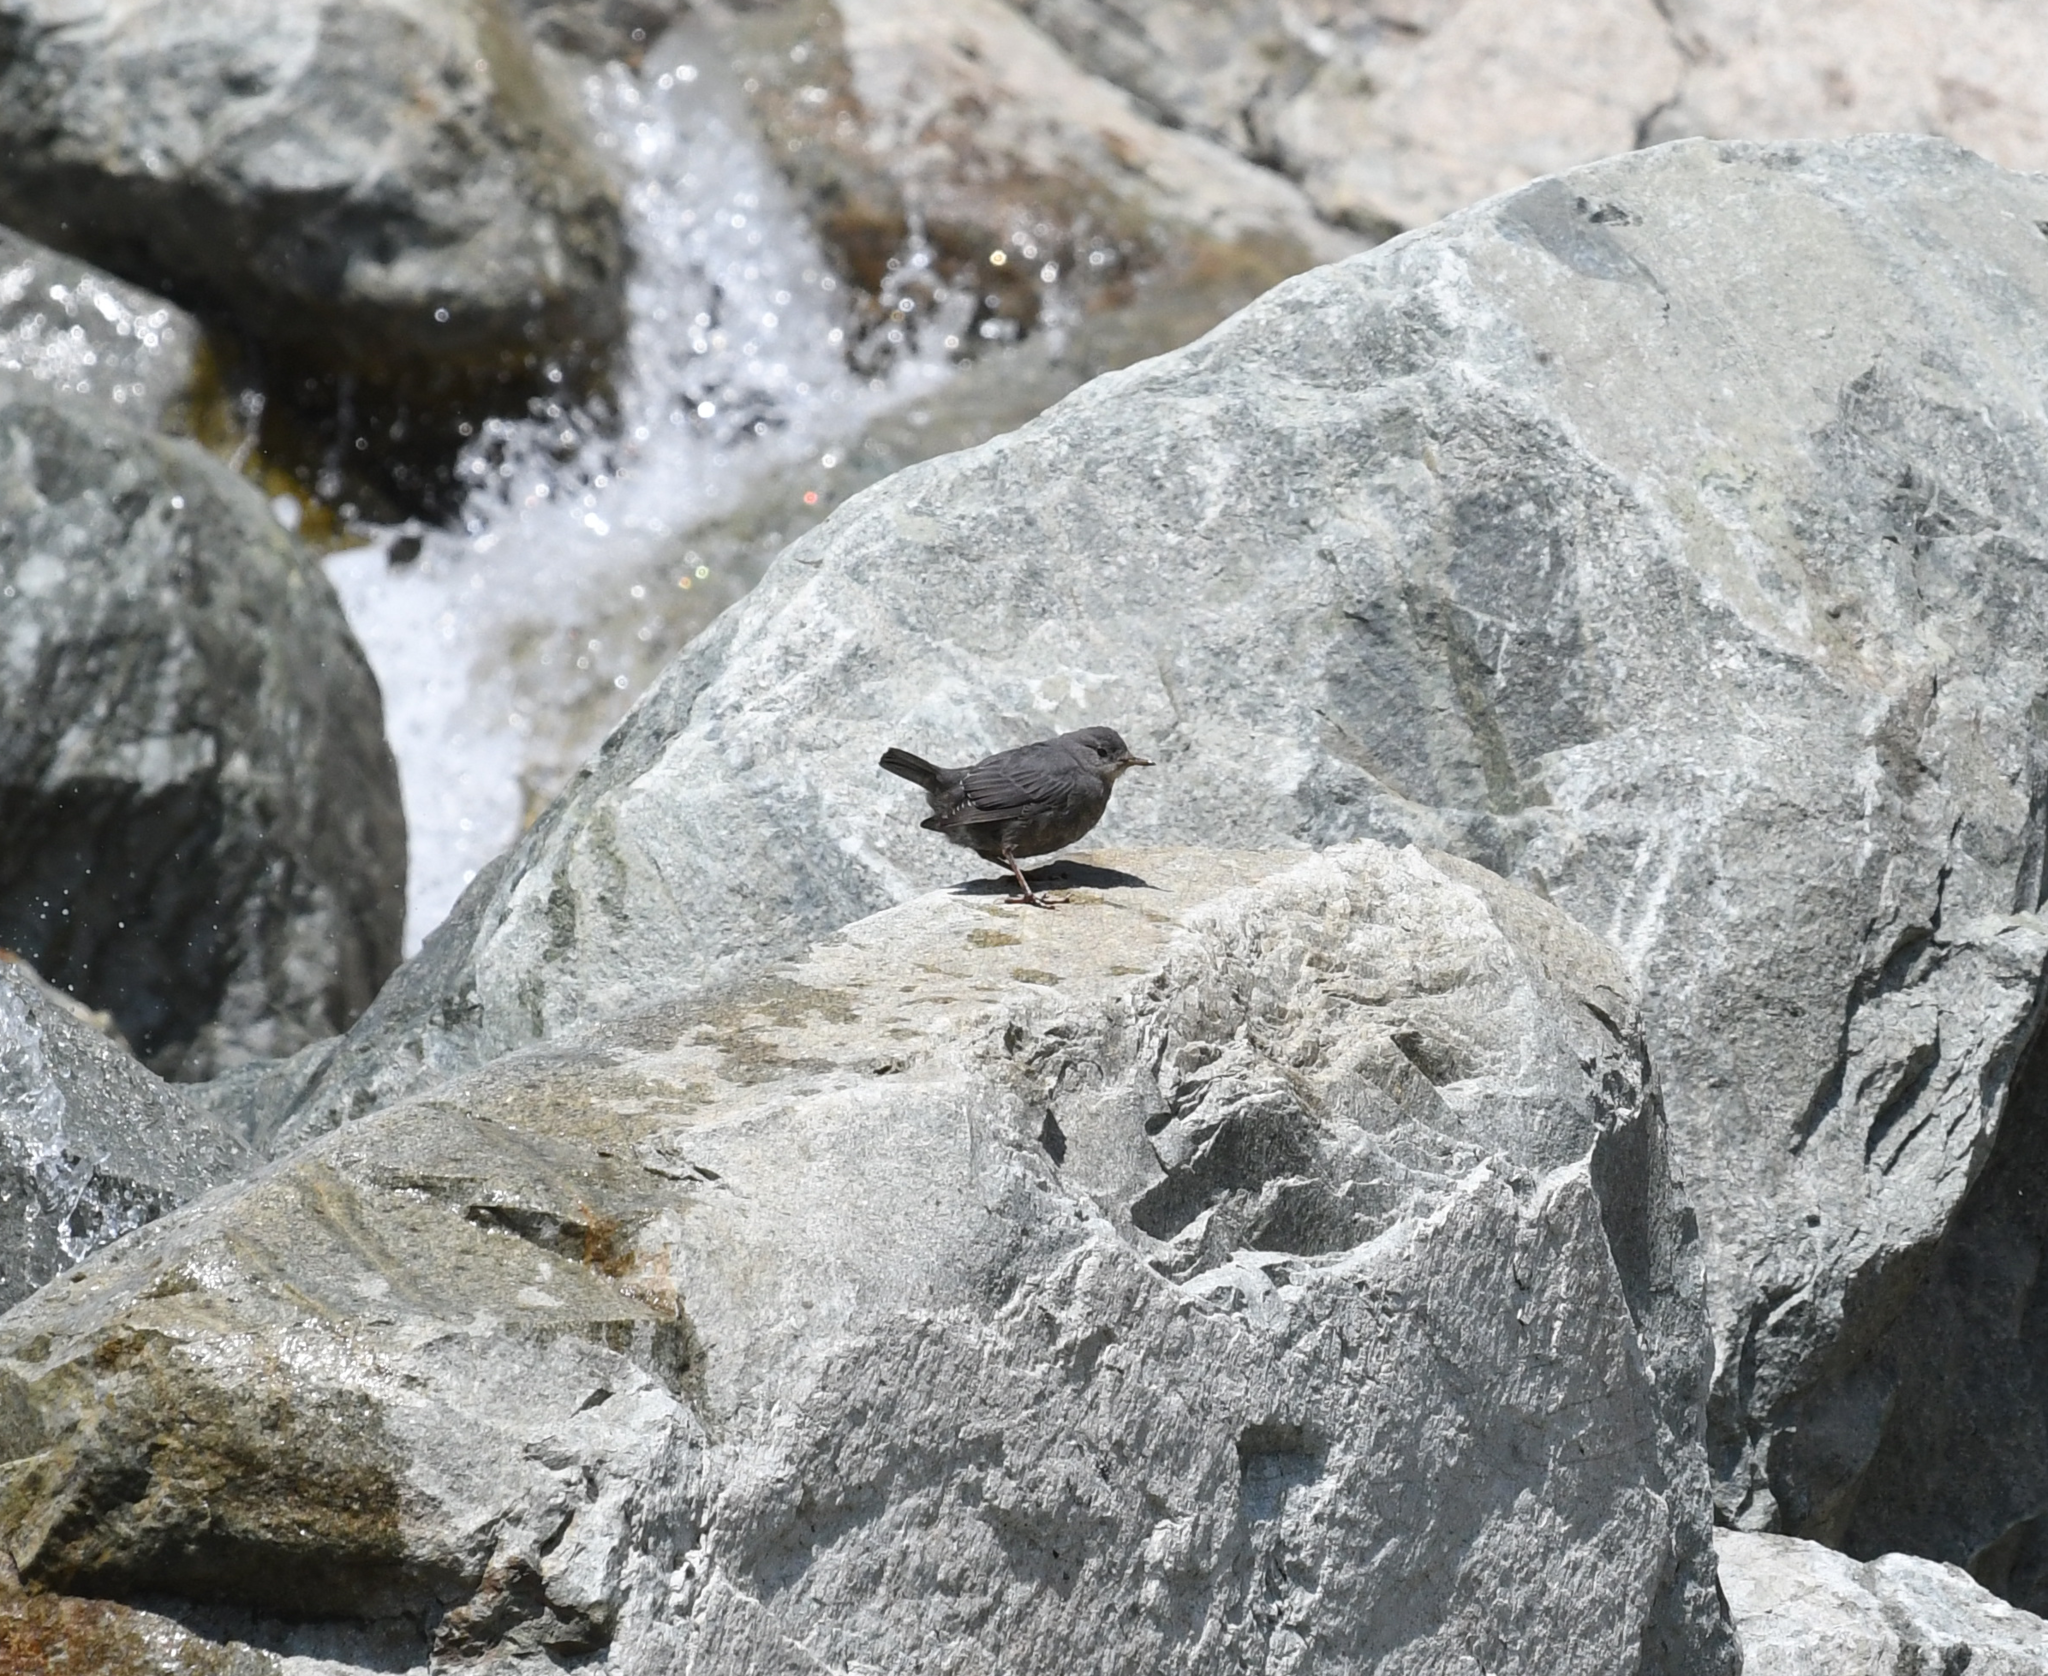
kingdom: Animalia
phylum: Chordata
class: Aves
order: Passeriformes
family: Cinclidae
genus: Cinclus
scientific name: Cinclus mexicanus
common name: American dipper
